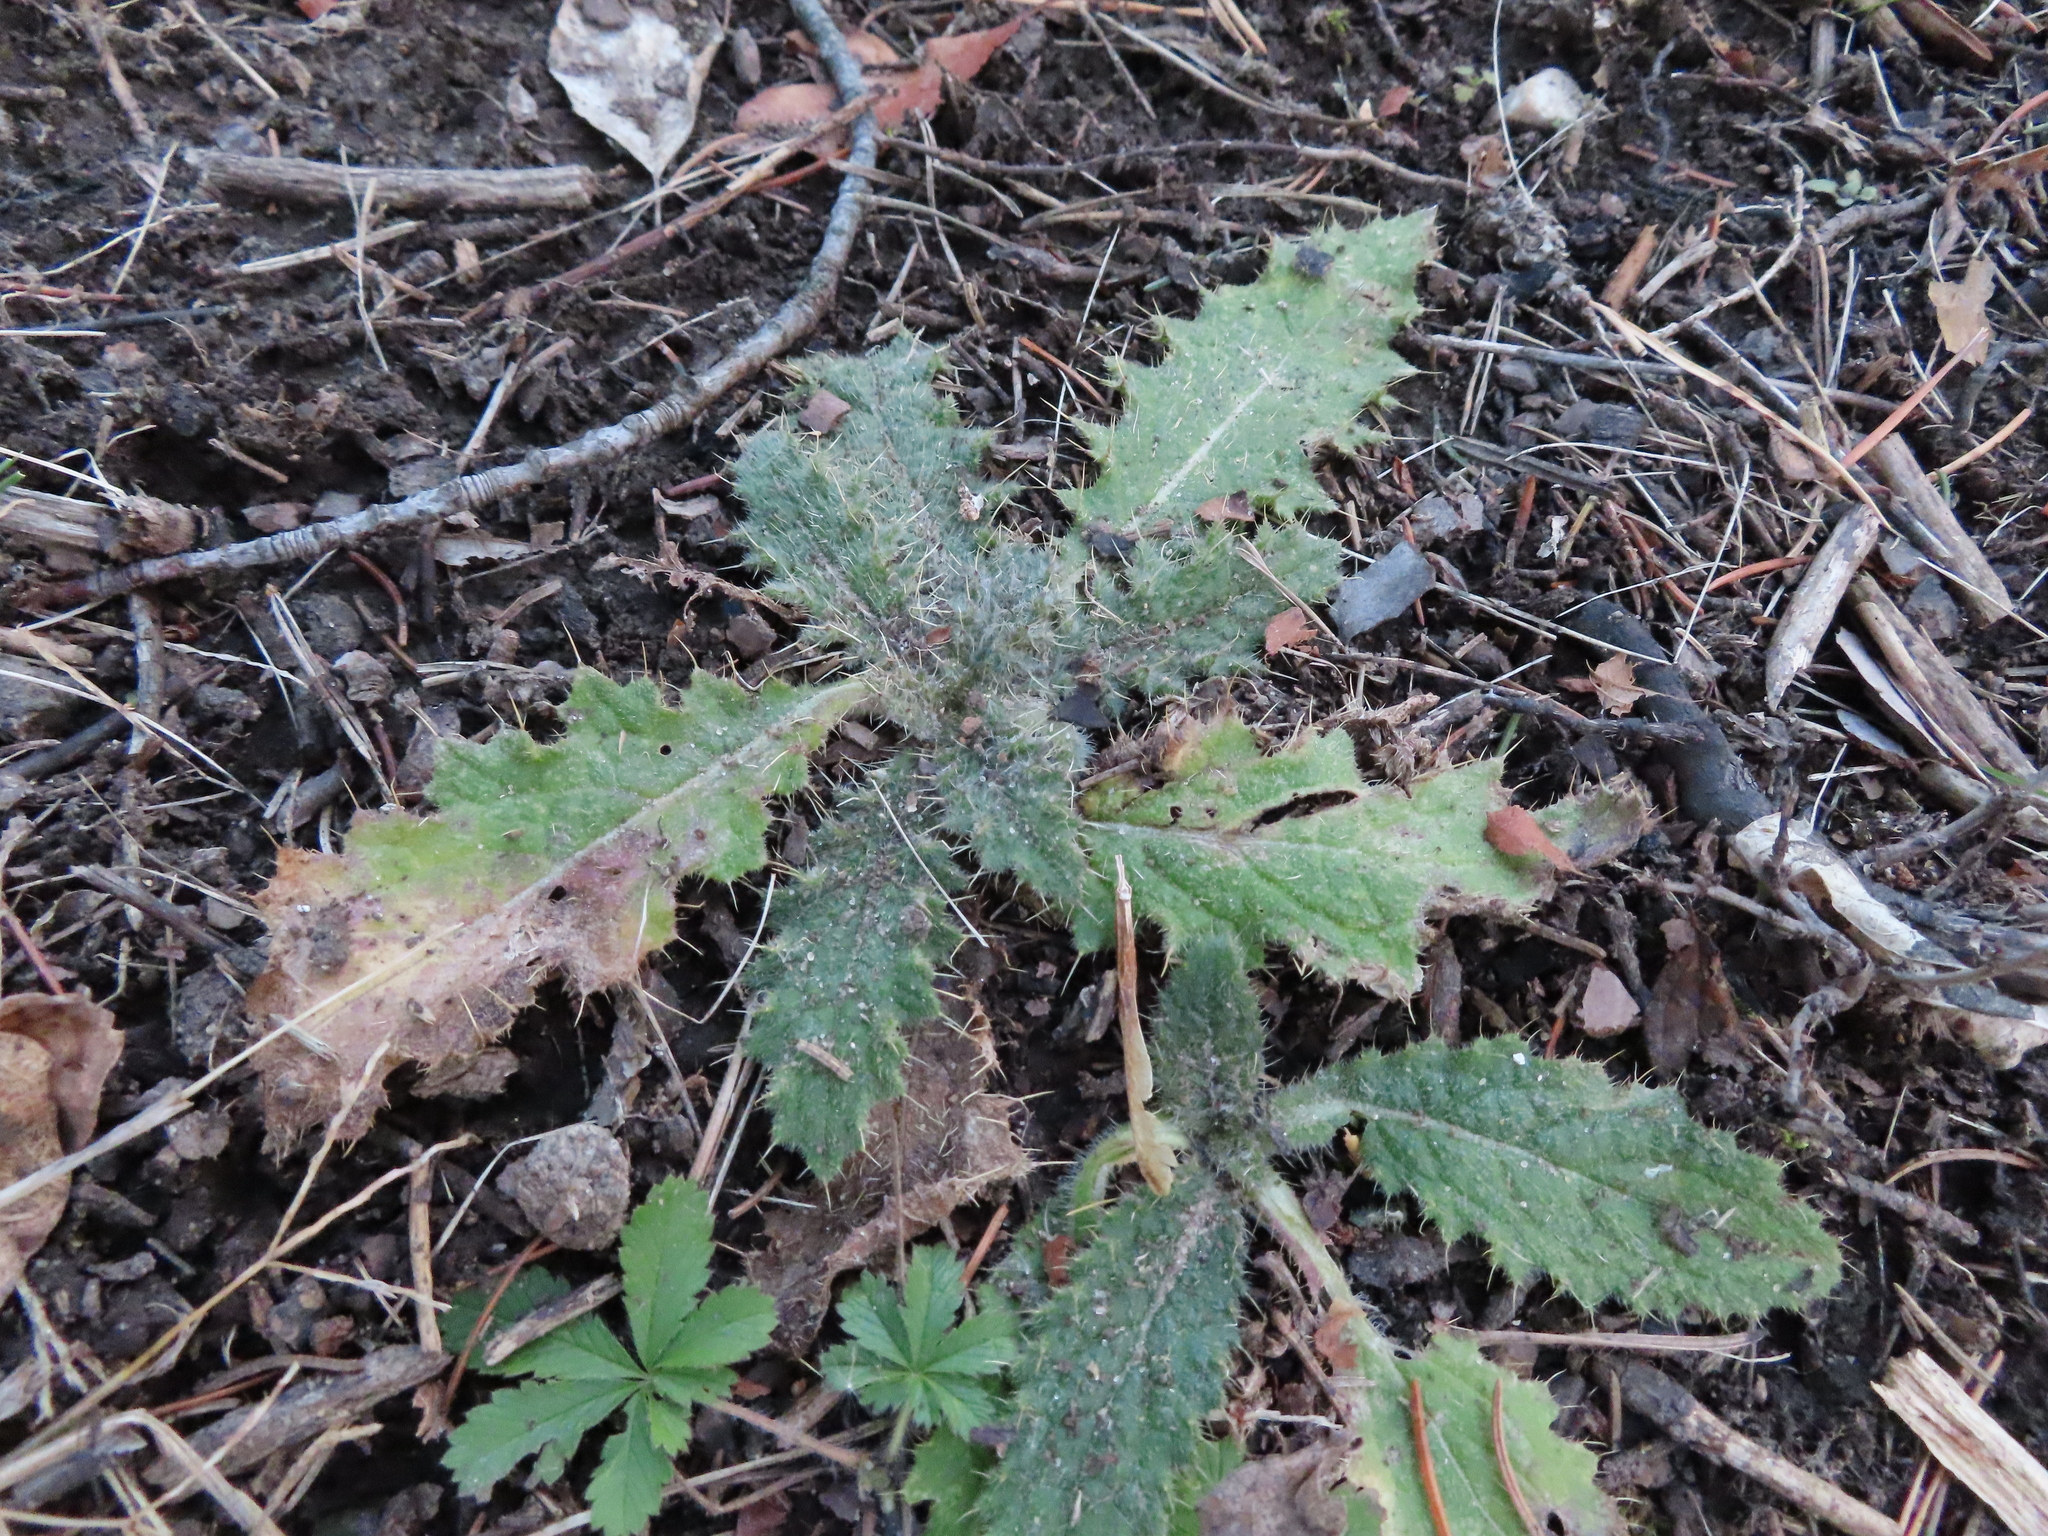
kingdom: Plantae
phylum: Tracheophyta
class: Magnoliopsida
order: Asterales
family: Asteraceae
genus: Cirsium
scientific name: Cirsium vulgare
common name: Bull thistle
